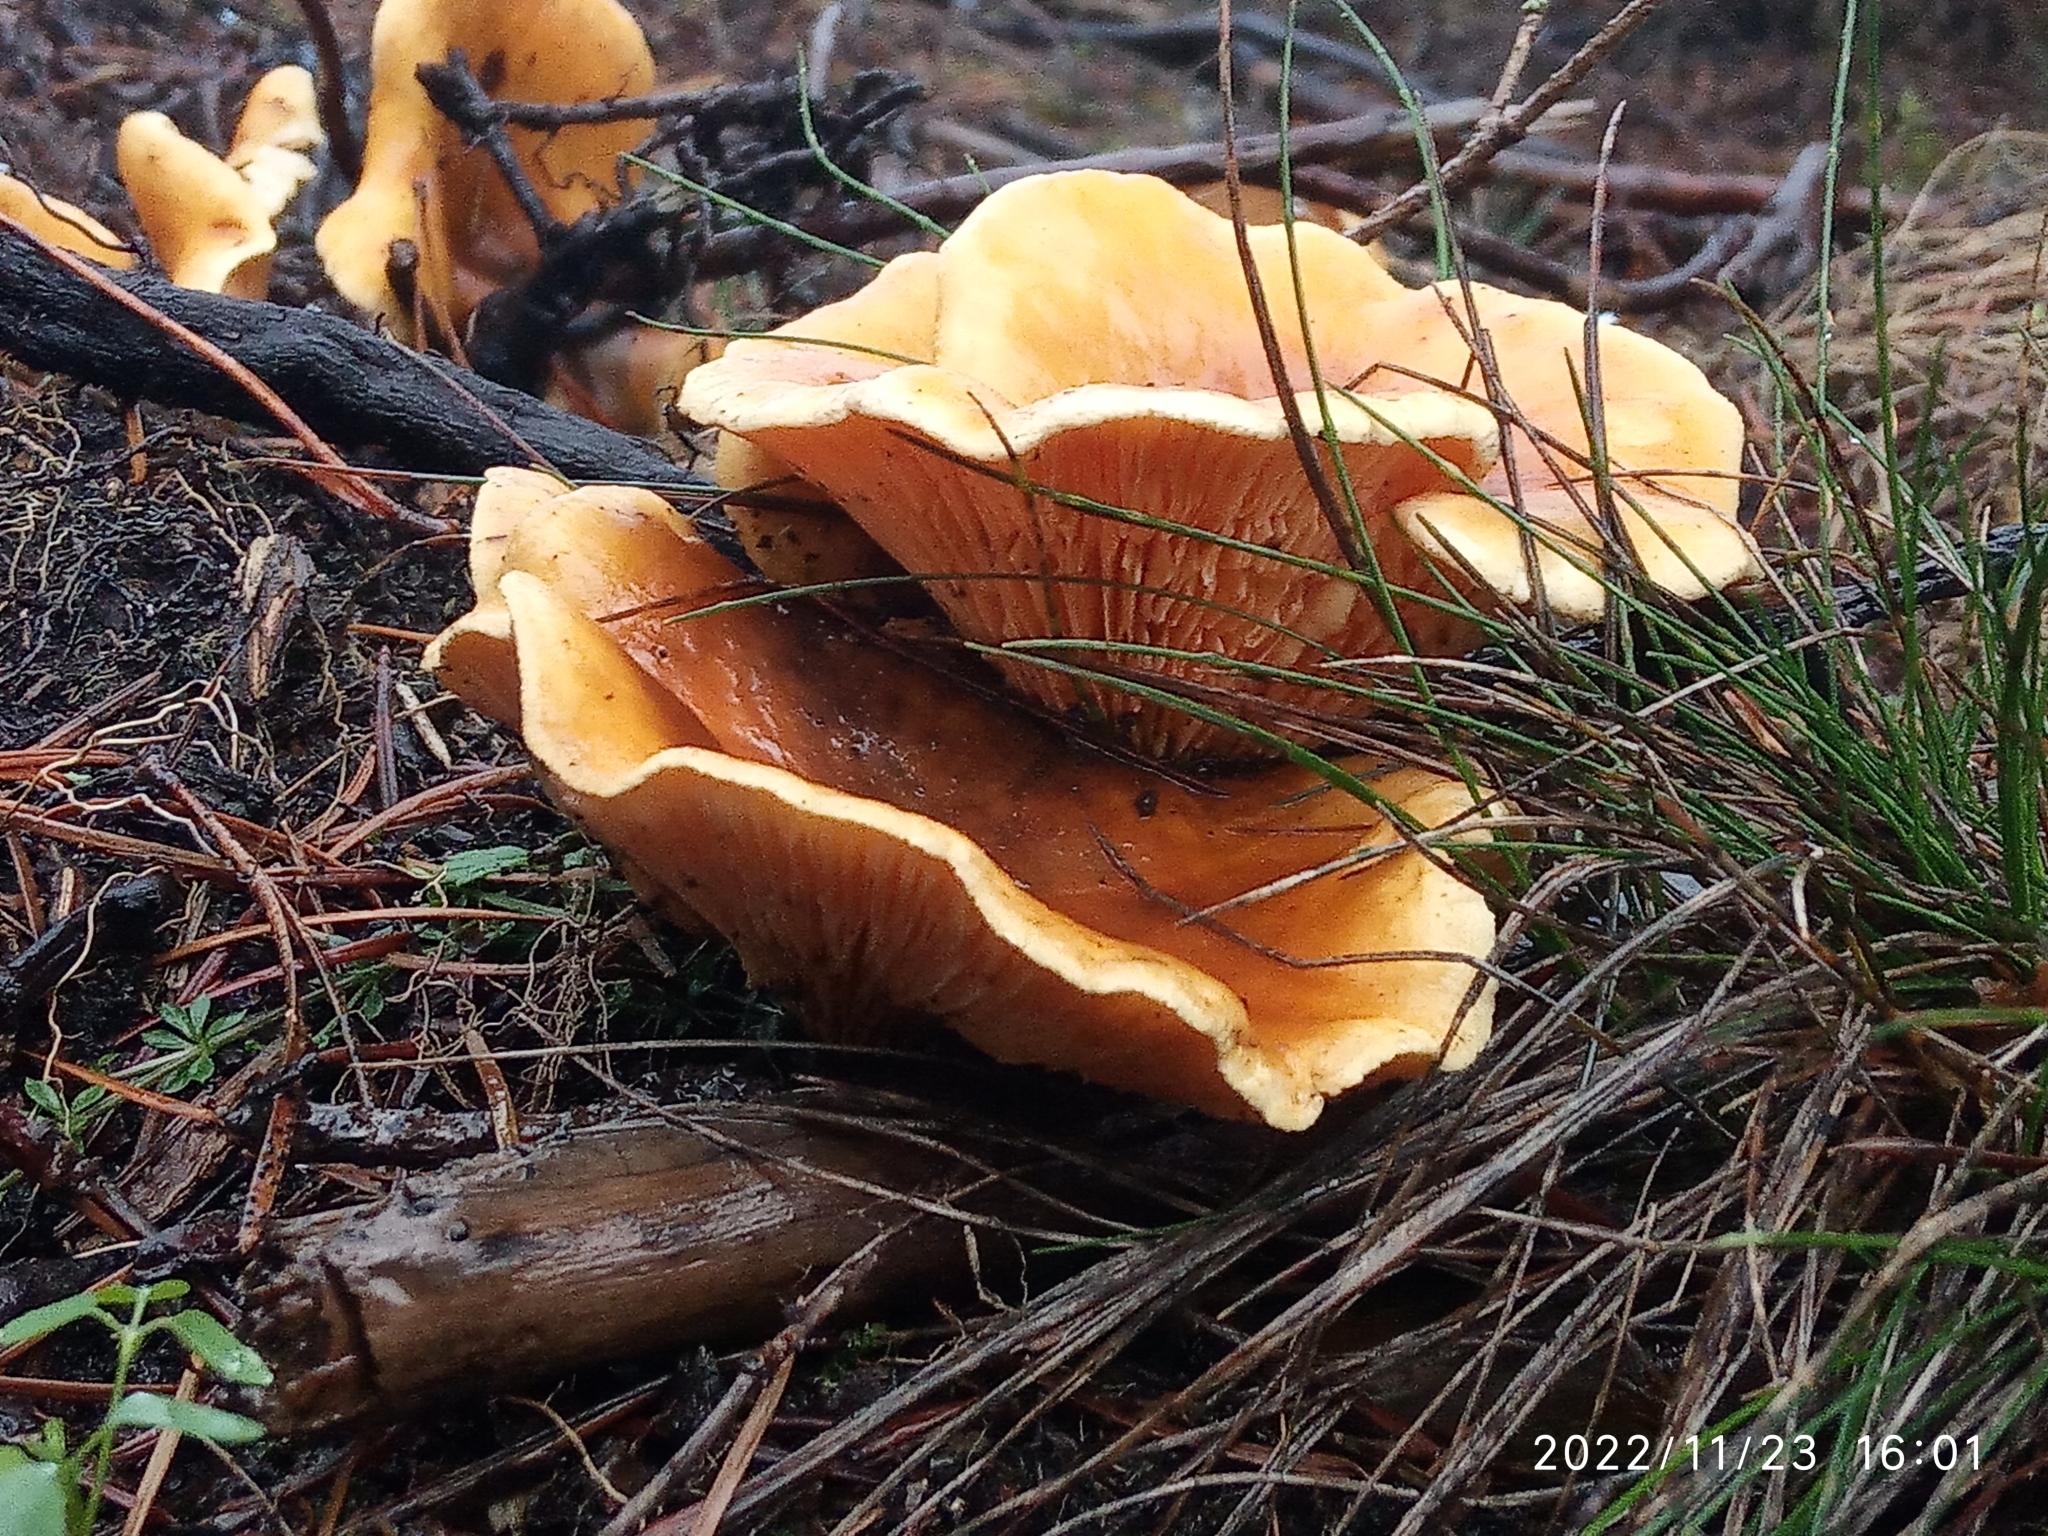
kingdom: Fungi
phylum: Basidiomycota
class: Agaricomycetes
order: Boletales
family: Hygrophoropsidaceae
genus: Hygrophoropsis
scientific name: Hygrophoropsis aurantiaca
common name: False chanterelle
